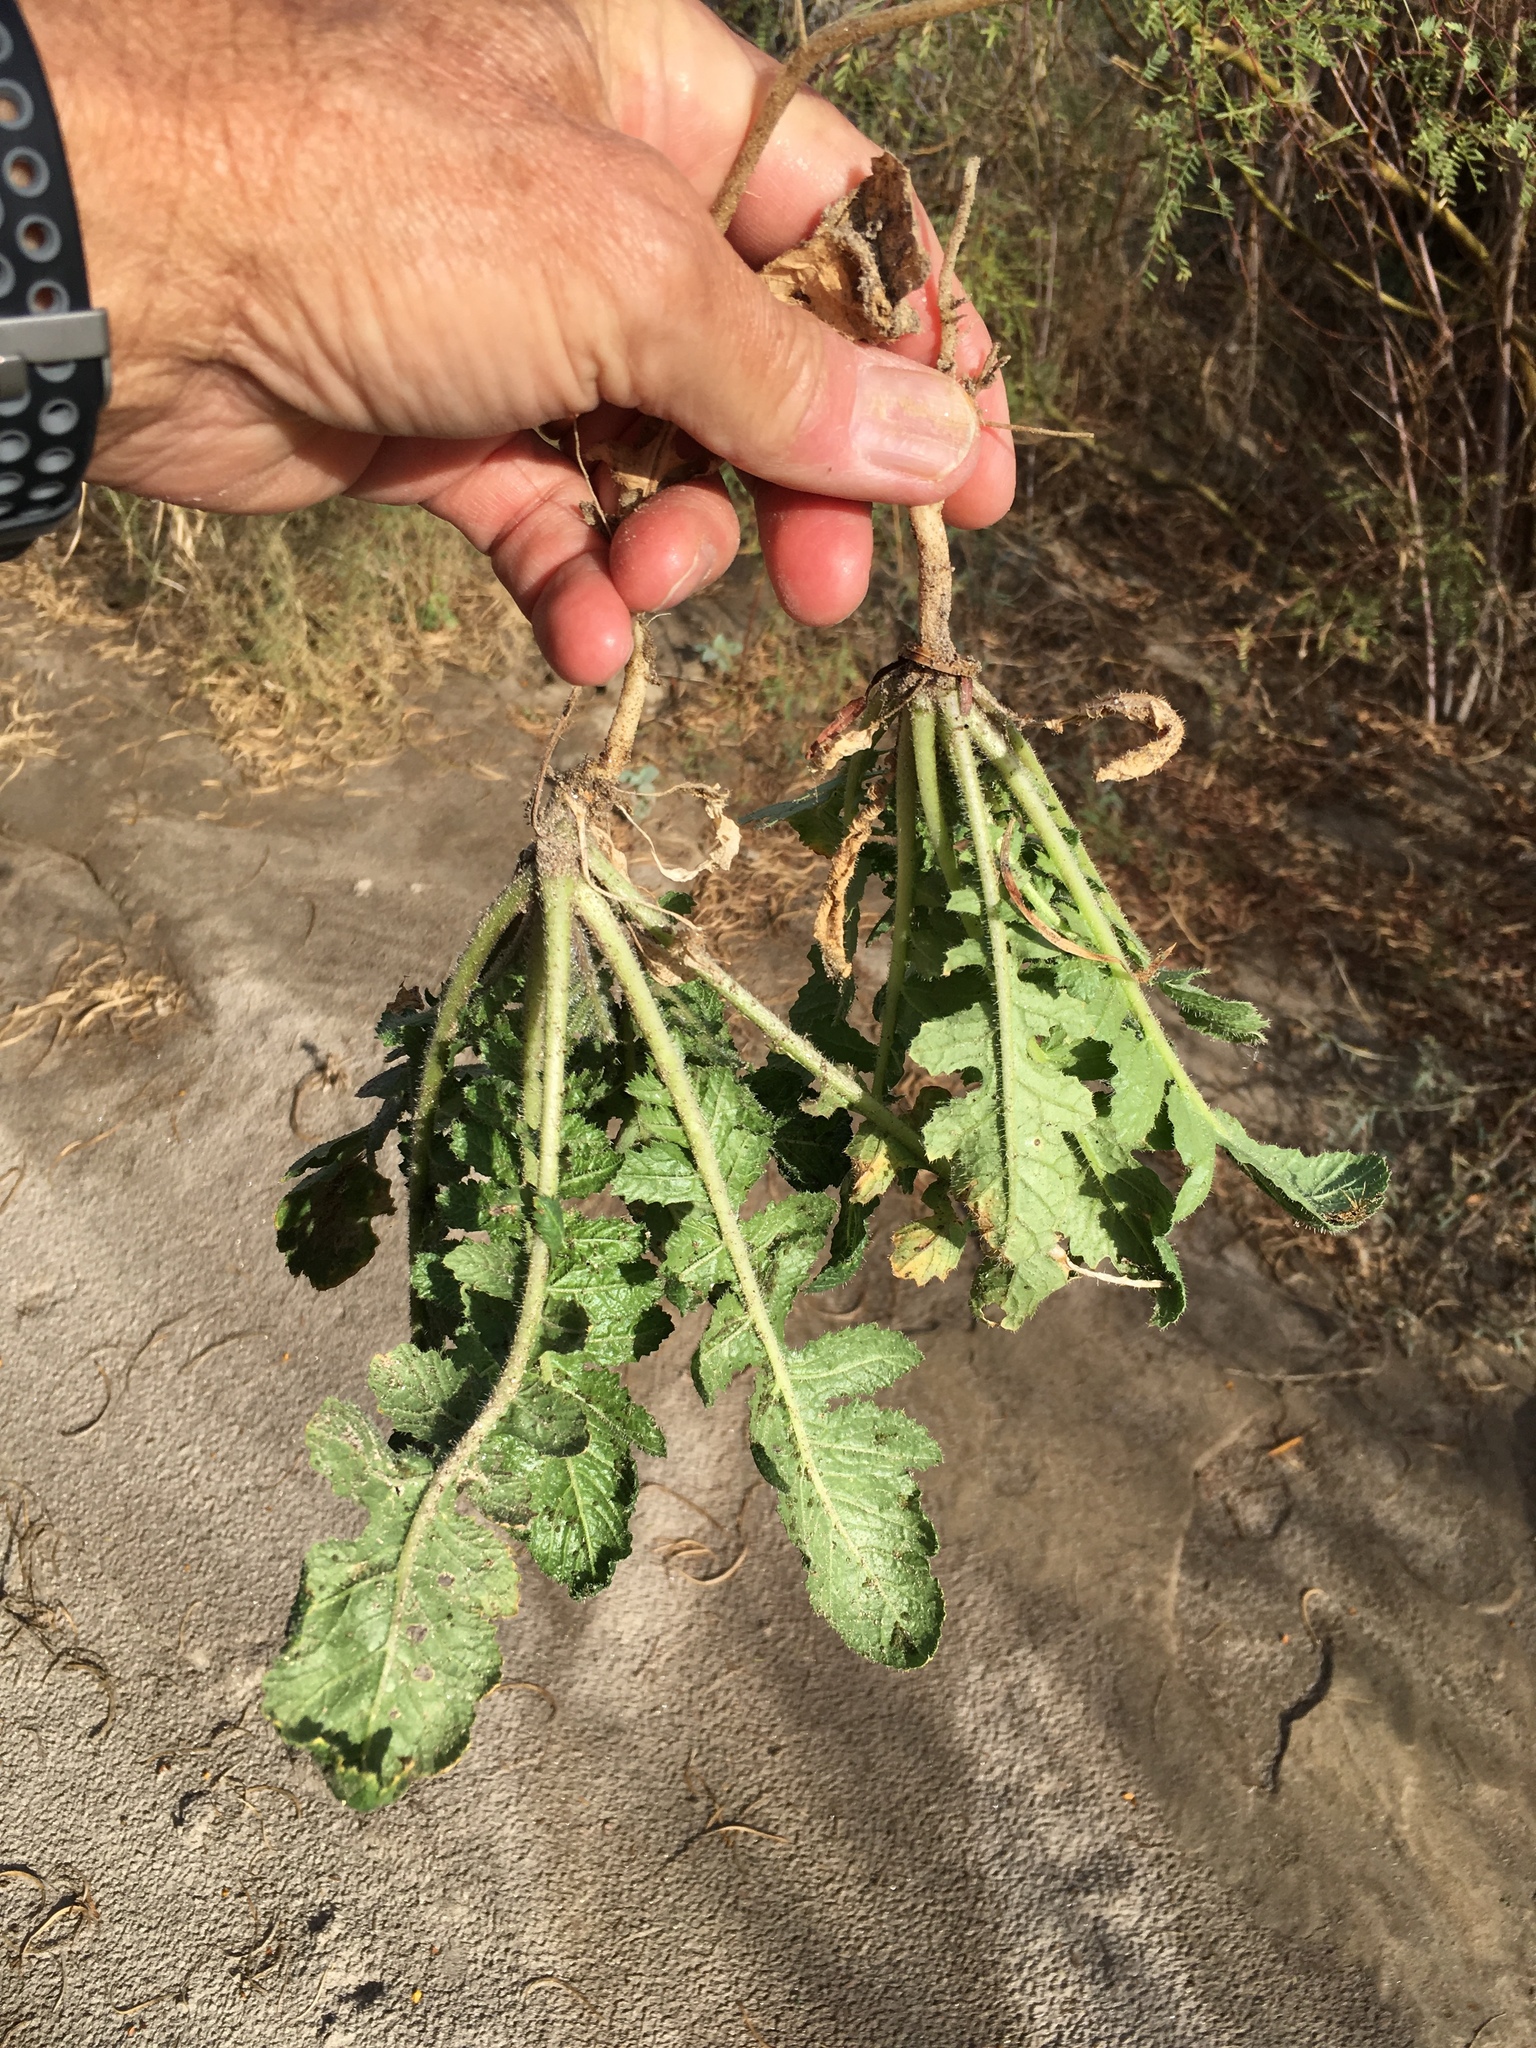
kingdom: Plantae
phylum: Tracheophyta
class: Magnoliopsida
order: Brassicales
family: Brassicaceae
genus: Brassica
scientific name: Brassica tournefortii
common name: Pale cabbage
